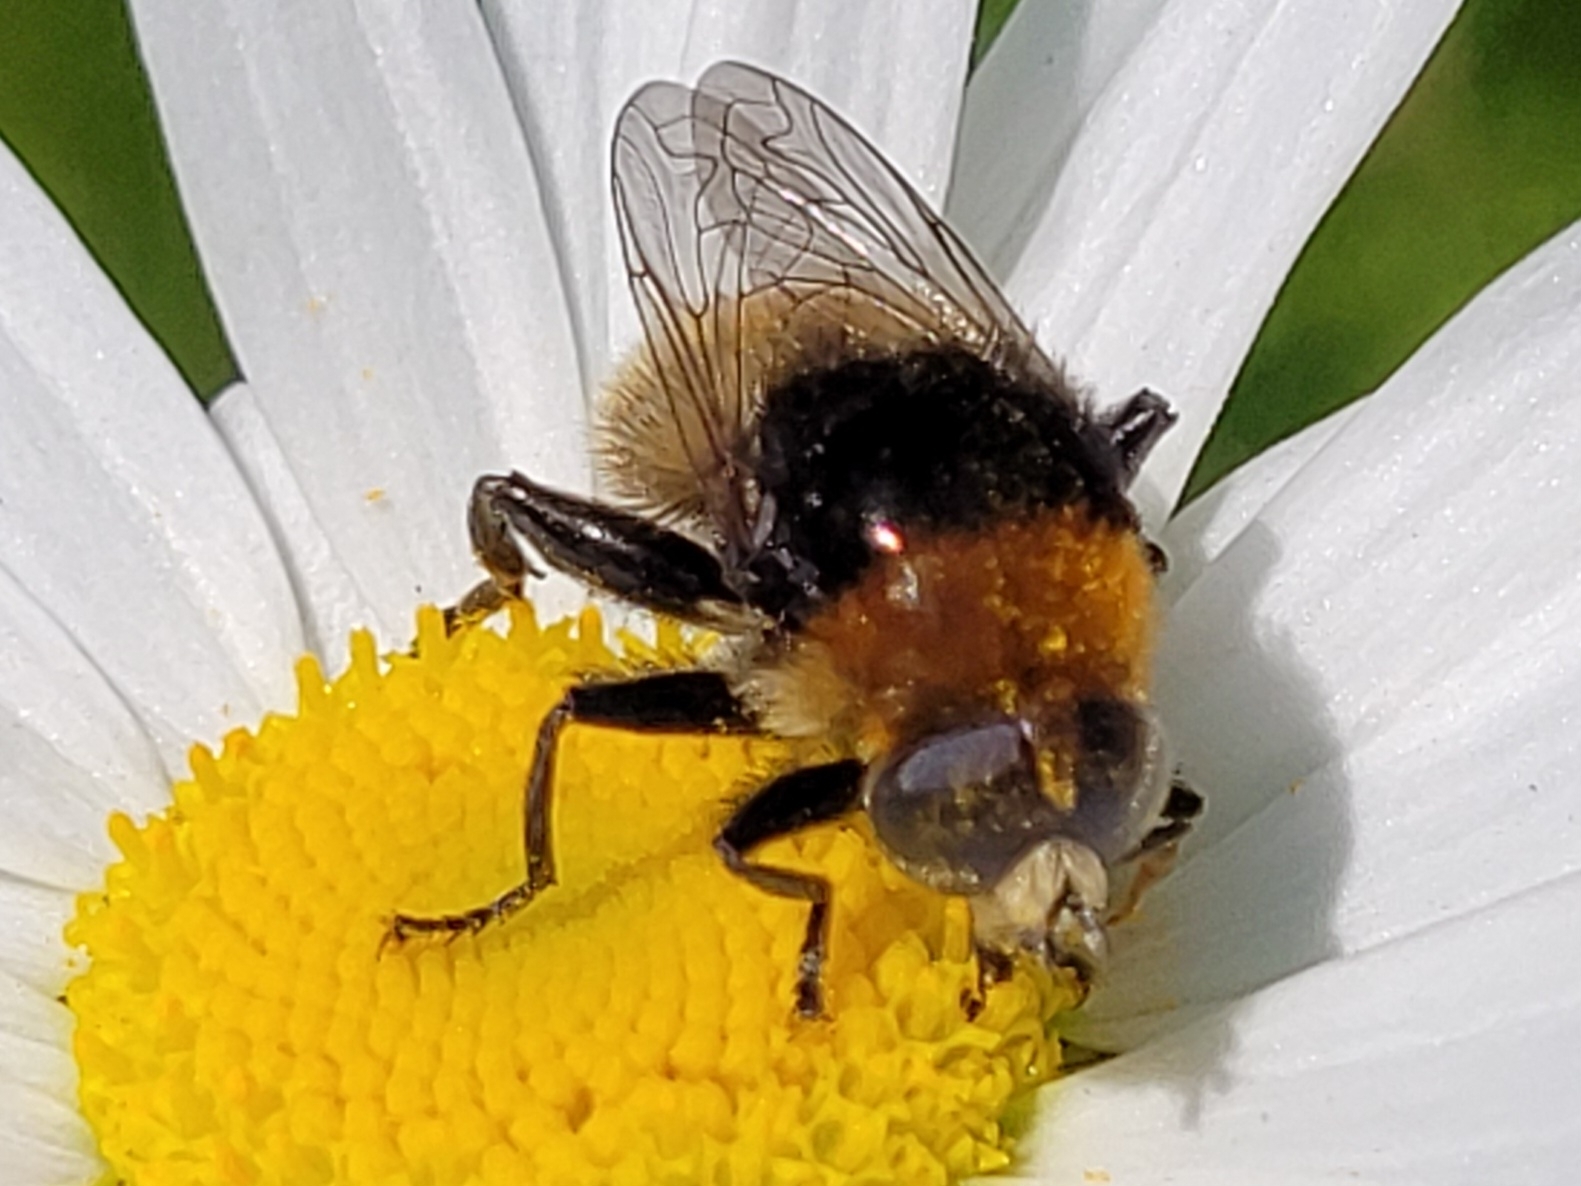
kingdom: Animalia
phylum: Arthropoda
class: Insecta
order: Diptera
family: Syrphidae
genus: Merodon
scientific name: Merodon equestris
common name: Greater bulb-fly
